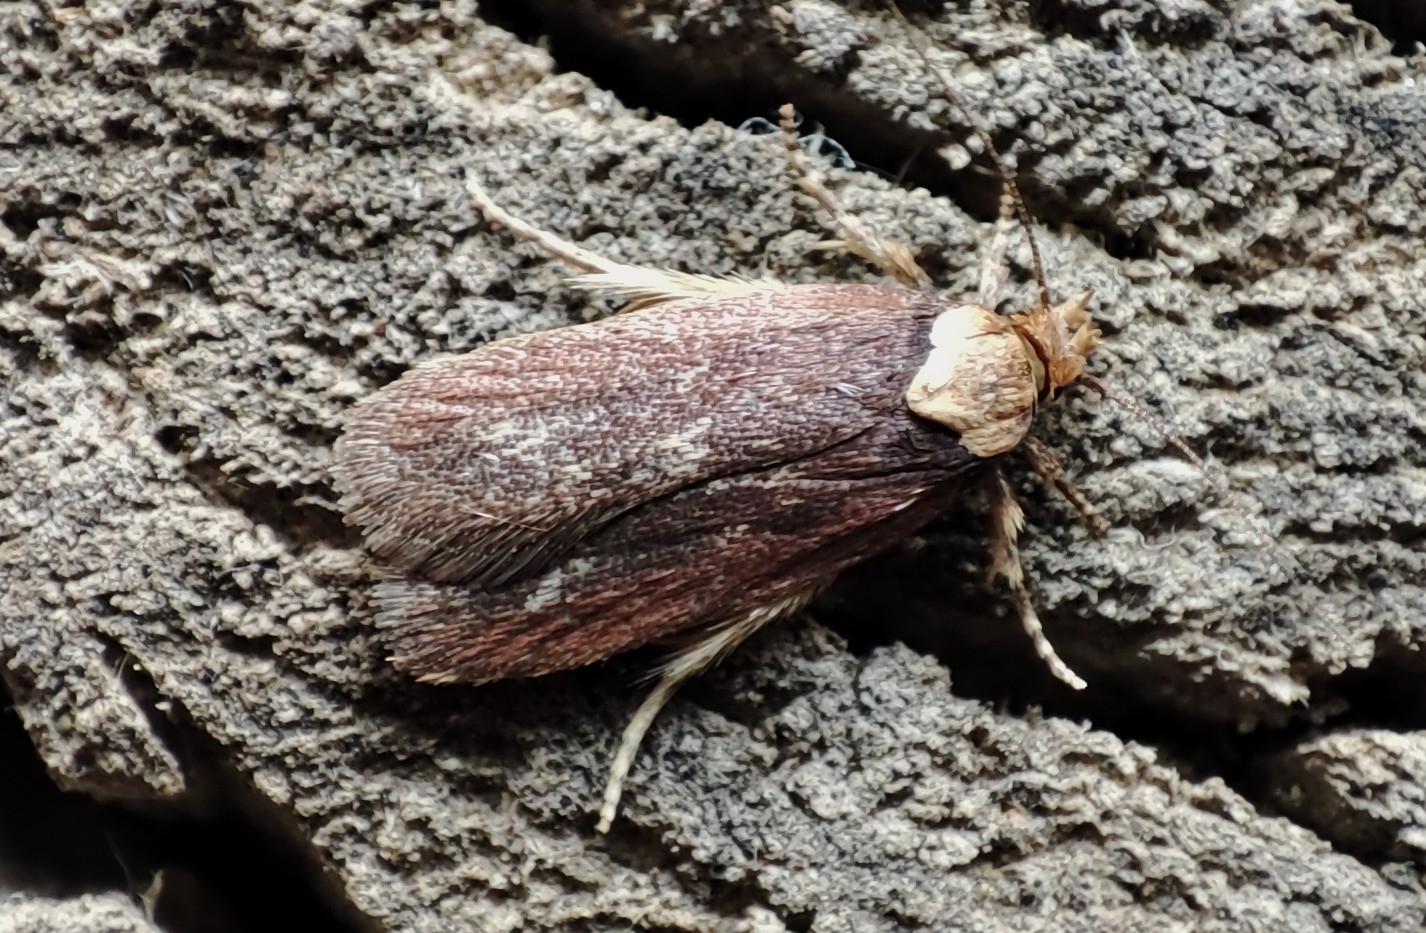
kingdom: Animalia
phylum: Arthropoda
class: Insecta
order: Lepidoptera
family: Depressariidae
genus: Depressaria
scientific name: Depressaria depressana
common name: Lost flat-body
